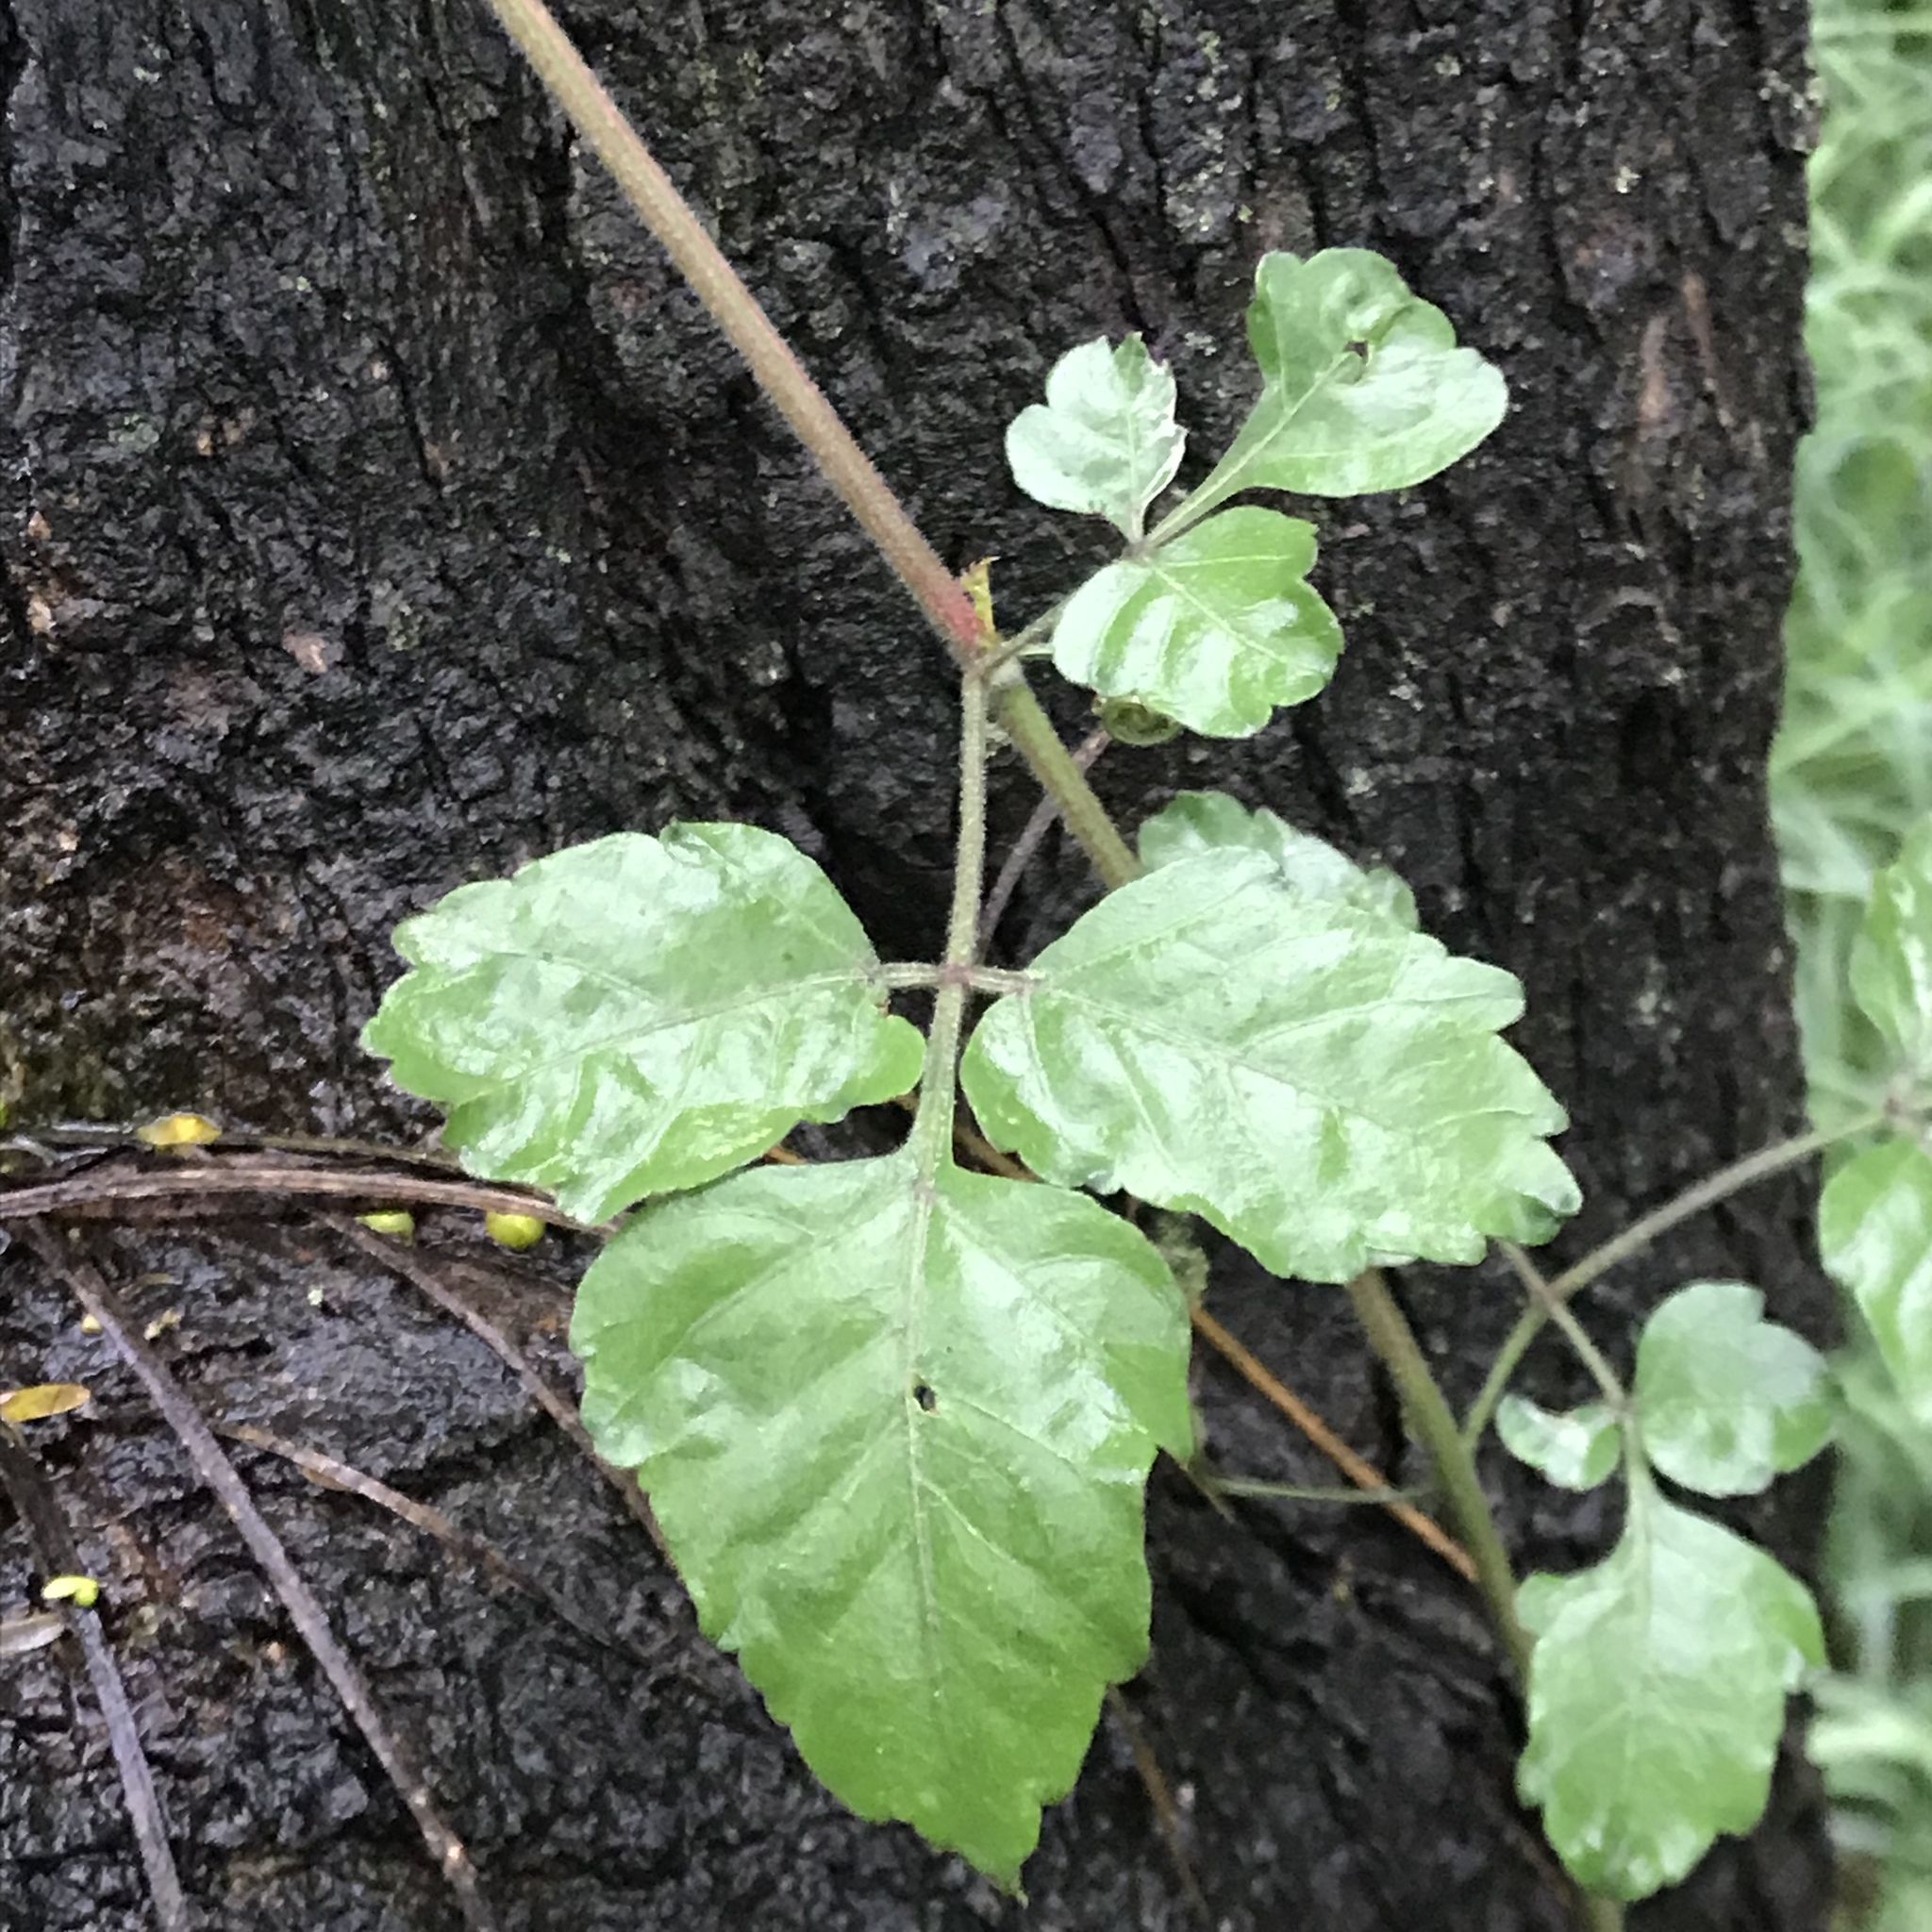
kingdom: Plantae
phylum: Tracheophyta
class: Magnoliopsida
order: Sapindales
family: Anacardiaceae
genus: Toxicodendron
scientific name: Toxicodendron radicans
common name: Poison ivy
